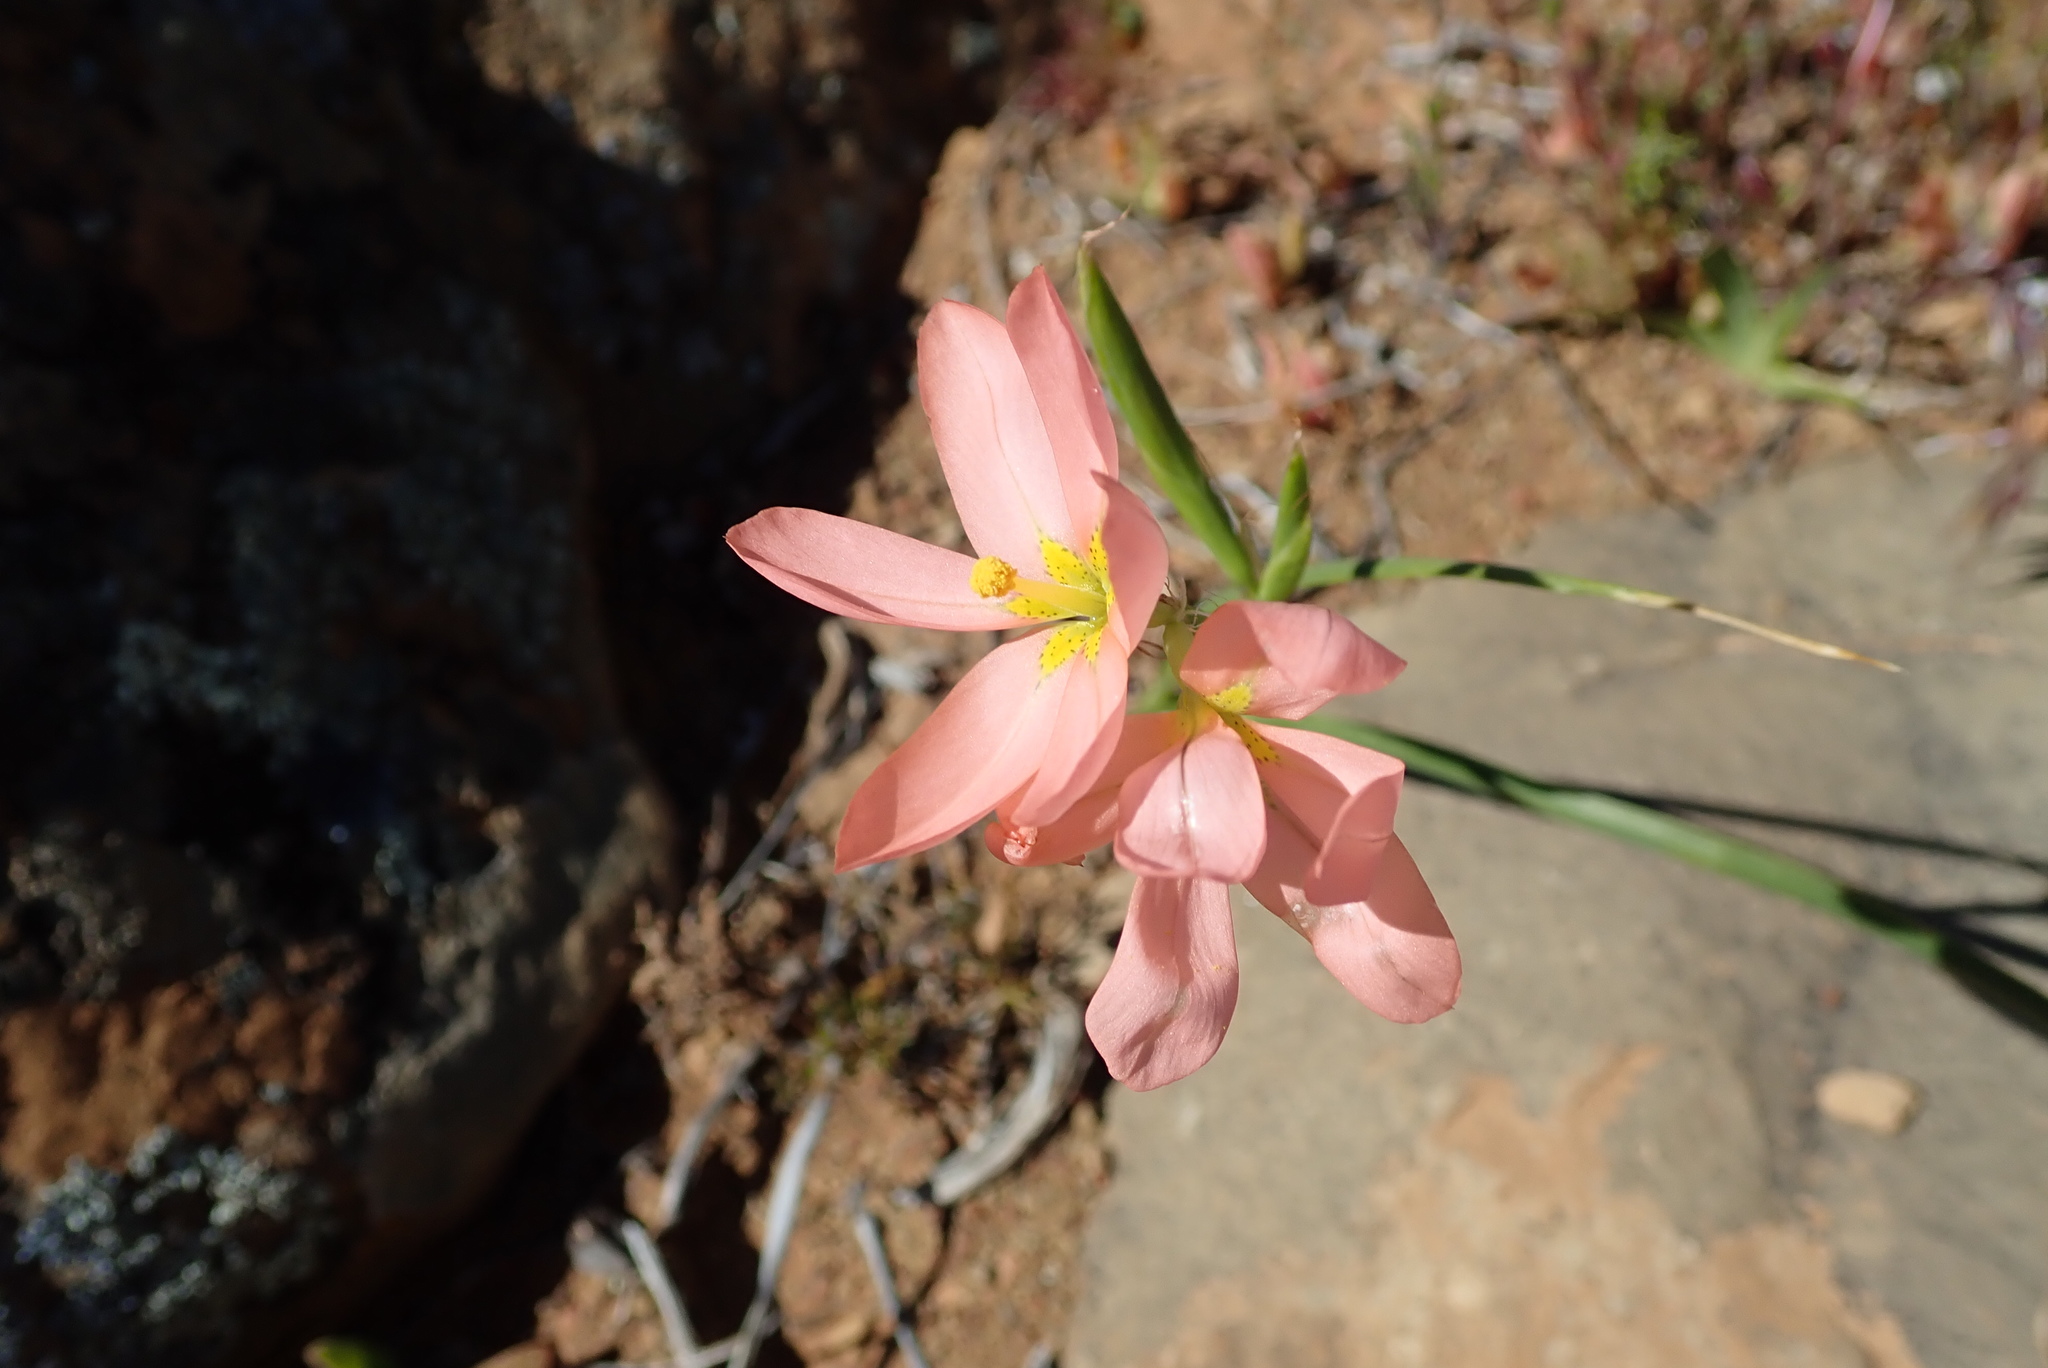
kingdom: Plantae
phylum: Tracheophyta
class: Liliopsida
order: Asparagales
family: Iridaceae
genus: Moraea
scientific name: Moraea miniata
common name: Two-leaf cape-tulip
